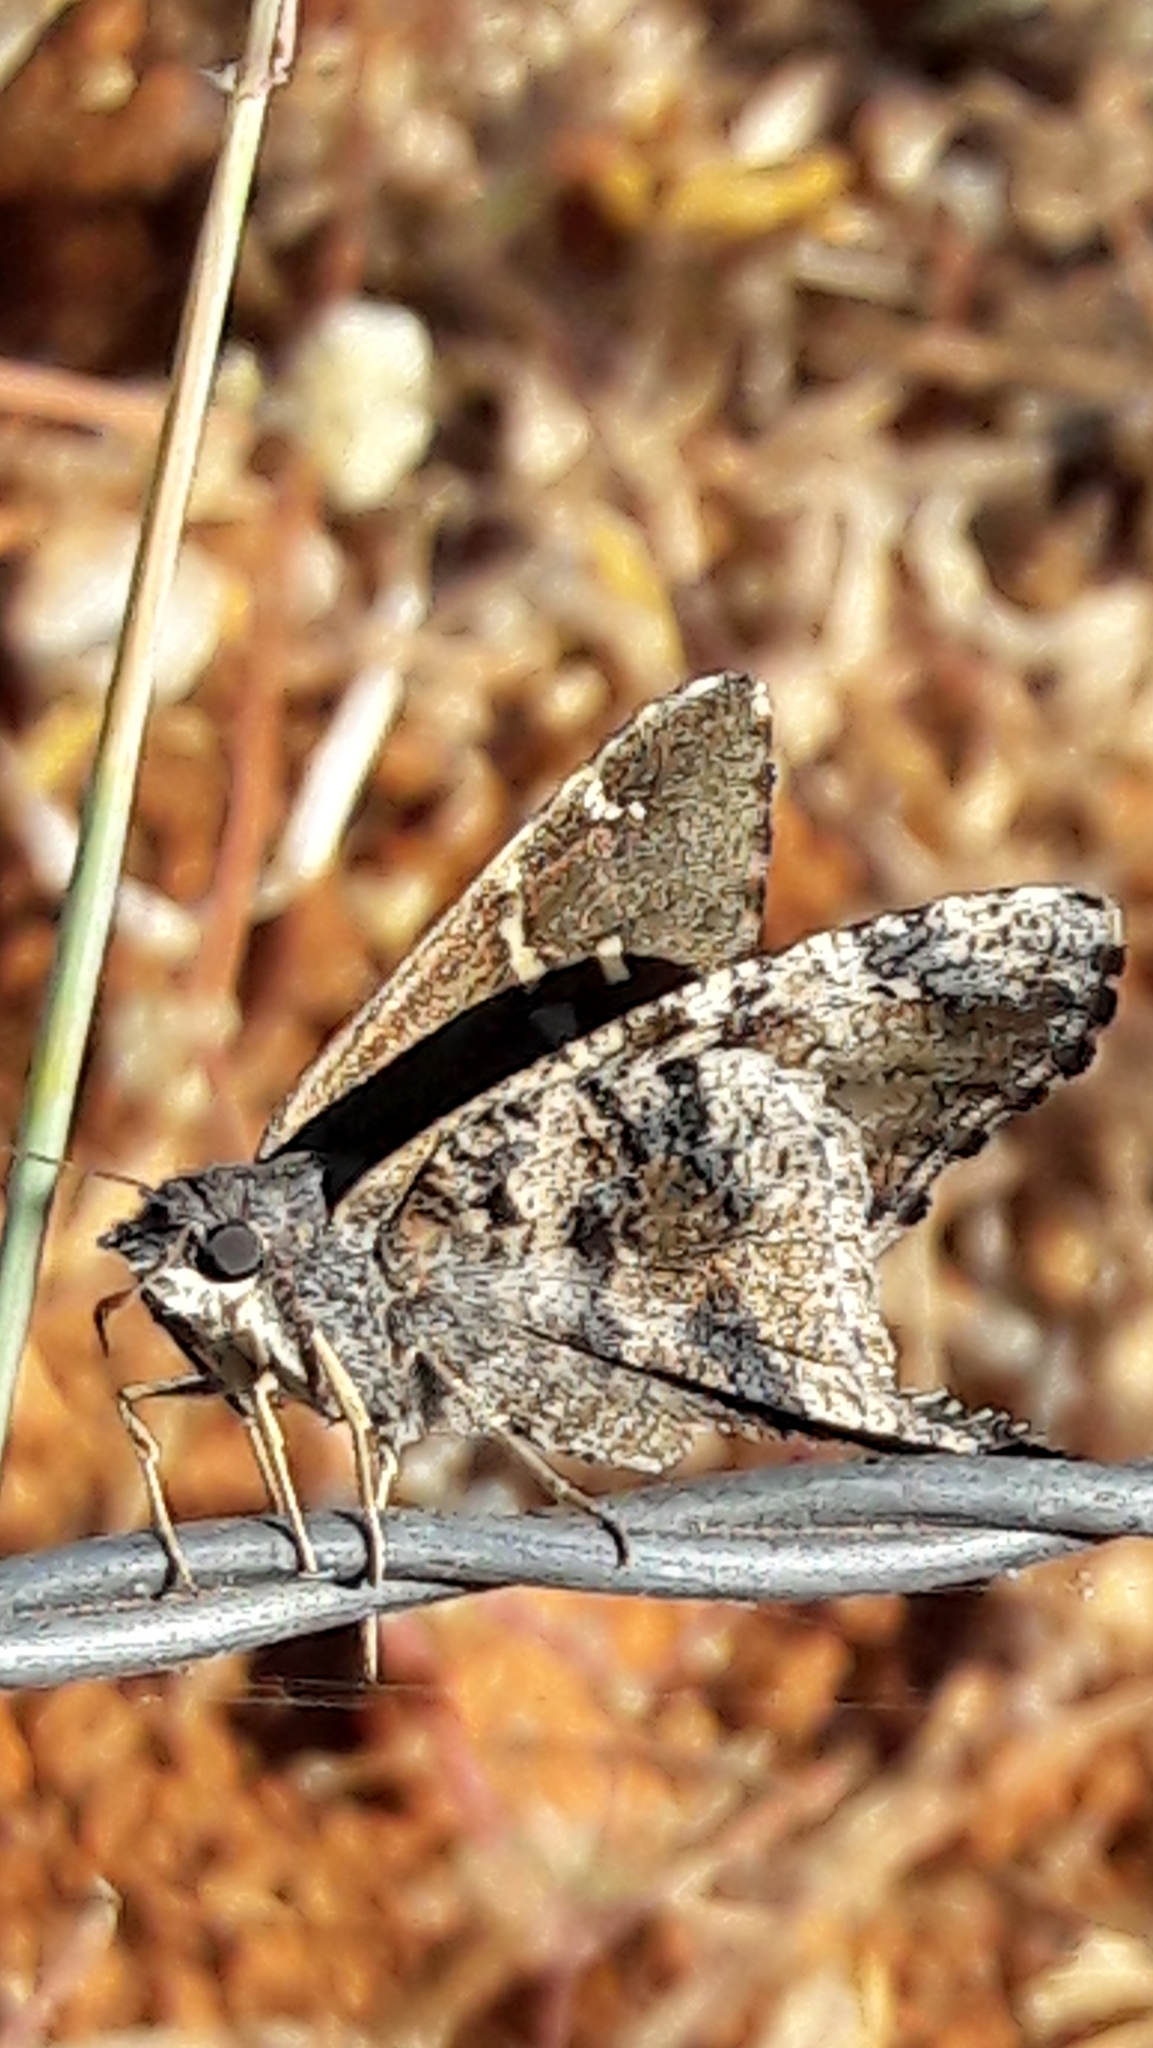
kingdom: Animalia
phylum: Arthropoda
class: Insecta
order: Lepidoptera
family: Hesperiidae
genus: Typhedanus
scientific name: Typhedanus undulatus
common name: Mottled longtail
